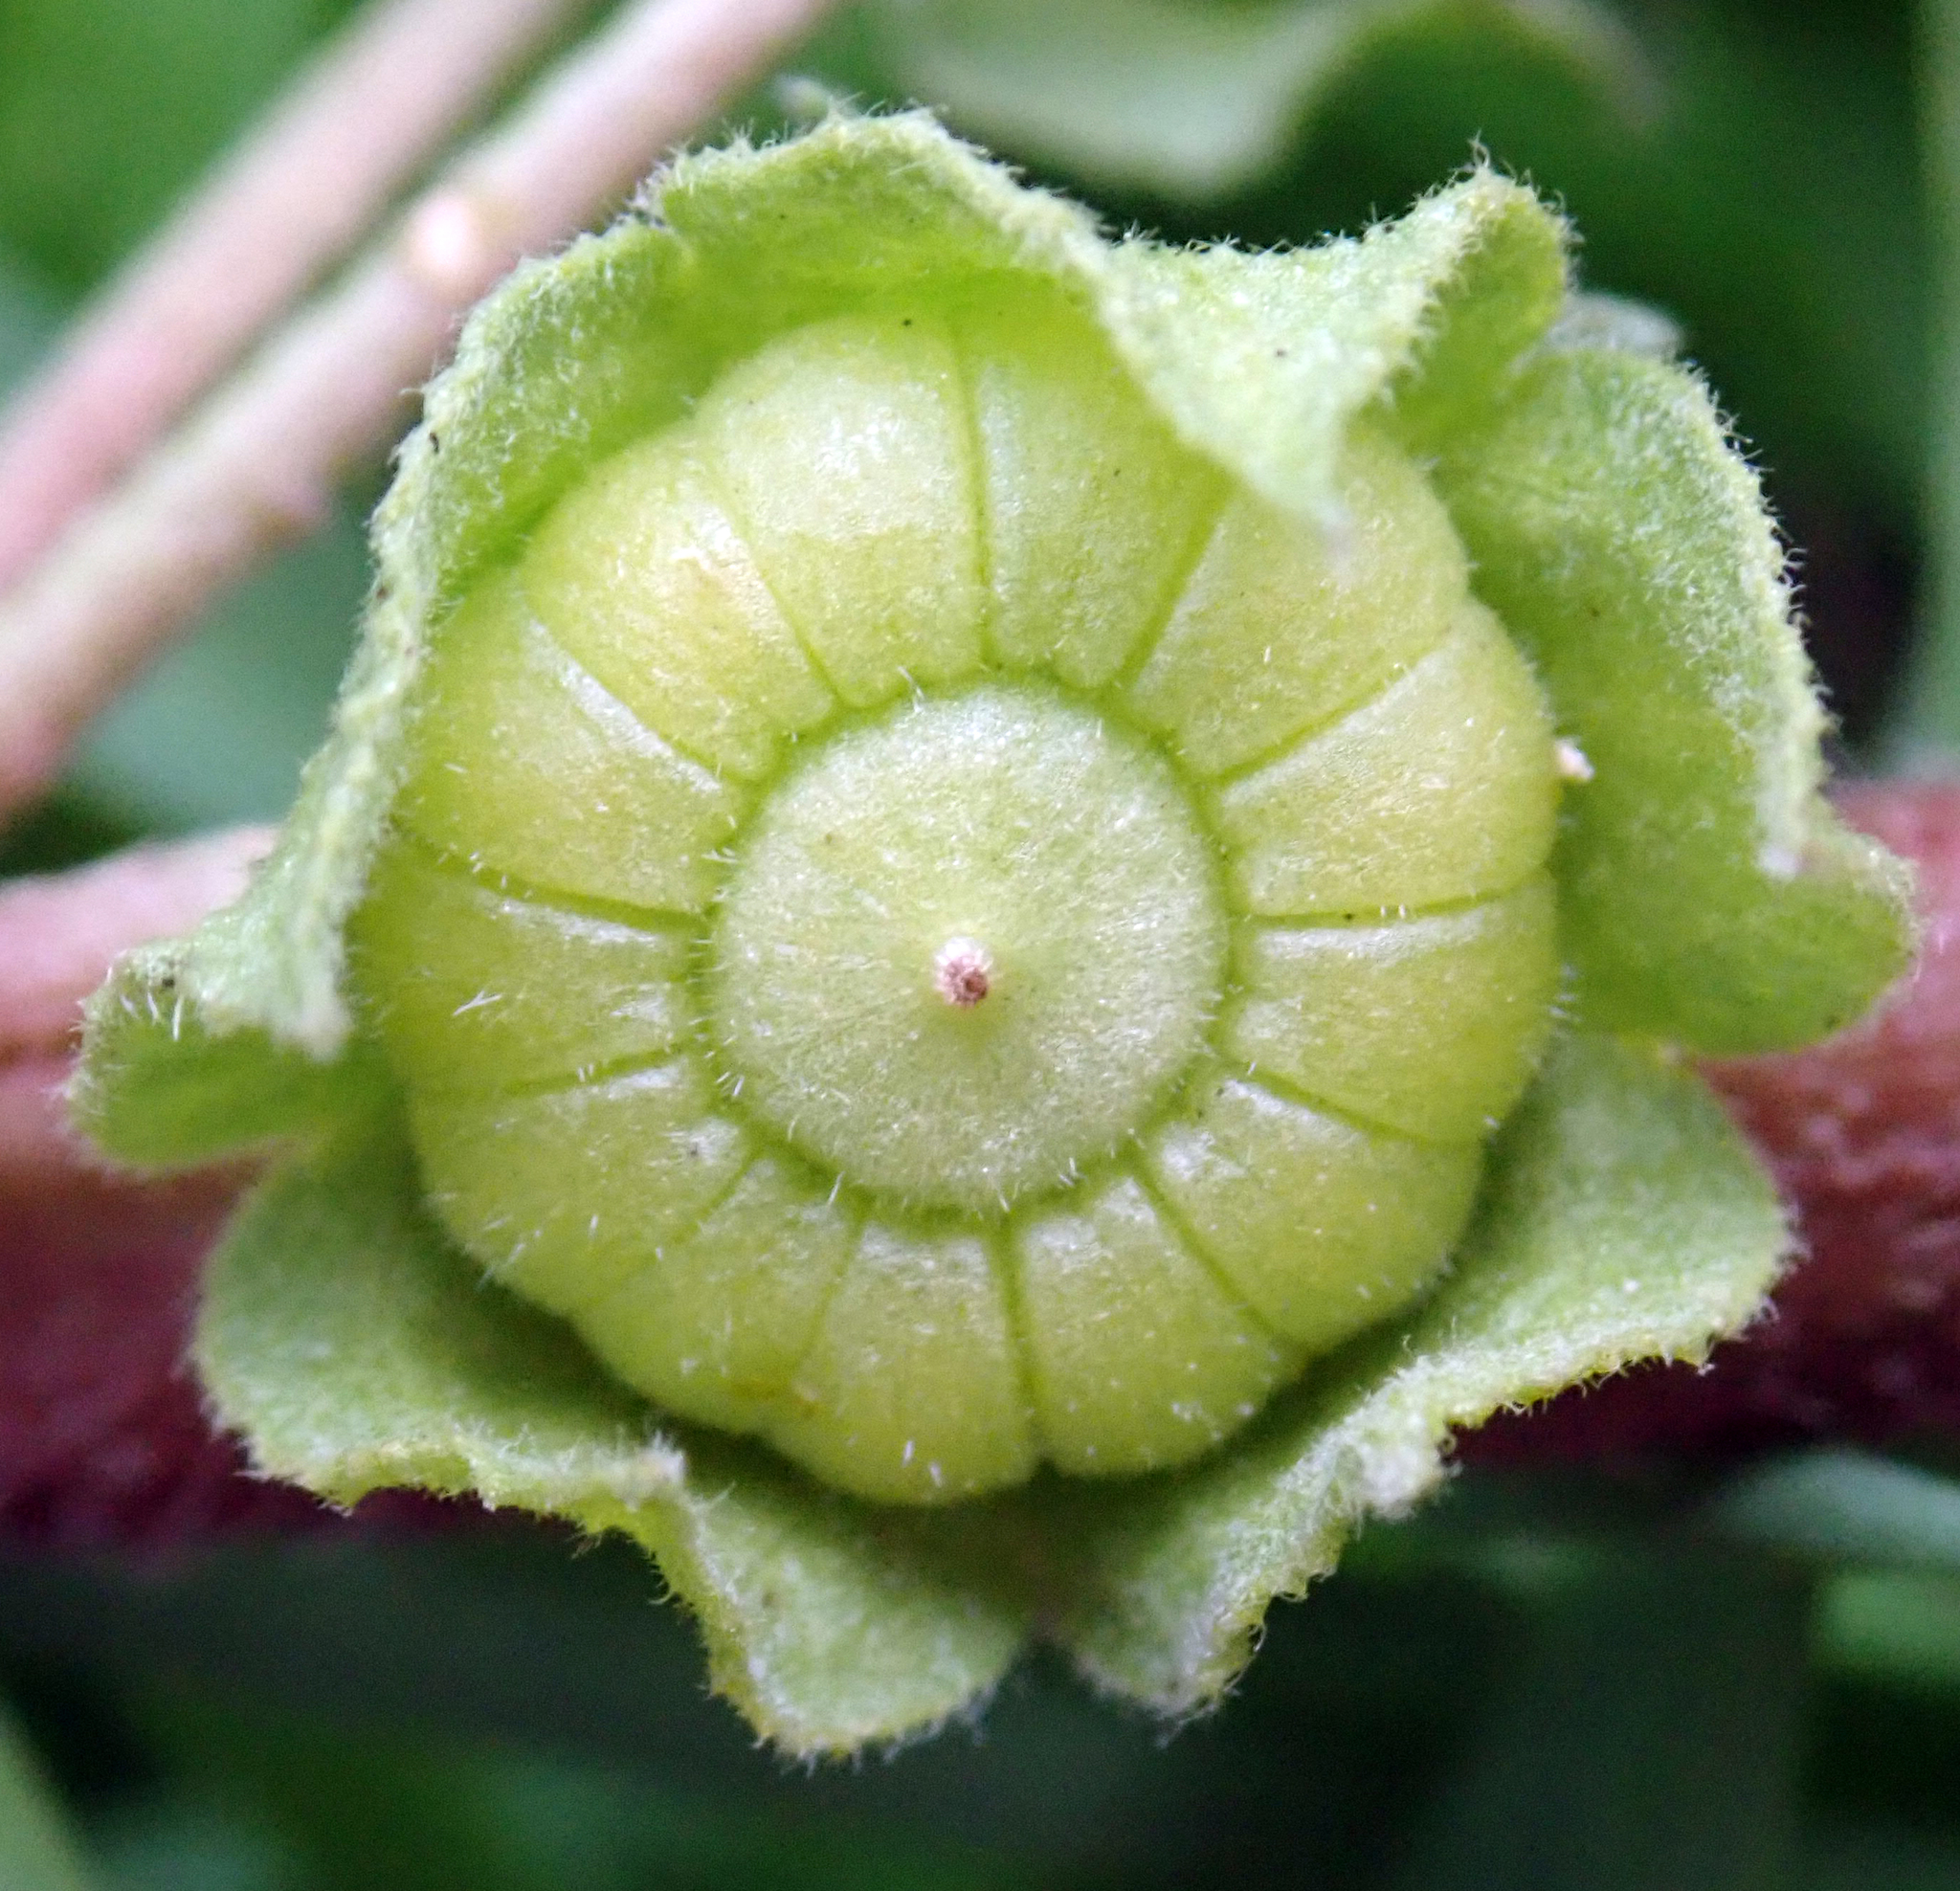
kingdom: Plantae
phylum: Tracheophyta
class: Magnoliopsida
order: Malvales
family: Malvaceae
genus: Malva
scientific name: Malva neglecta
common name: Common mallow
